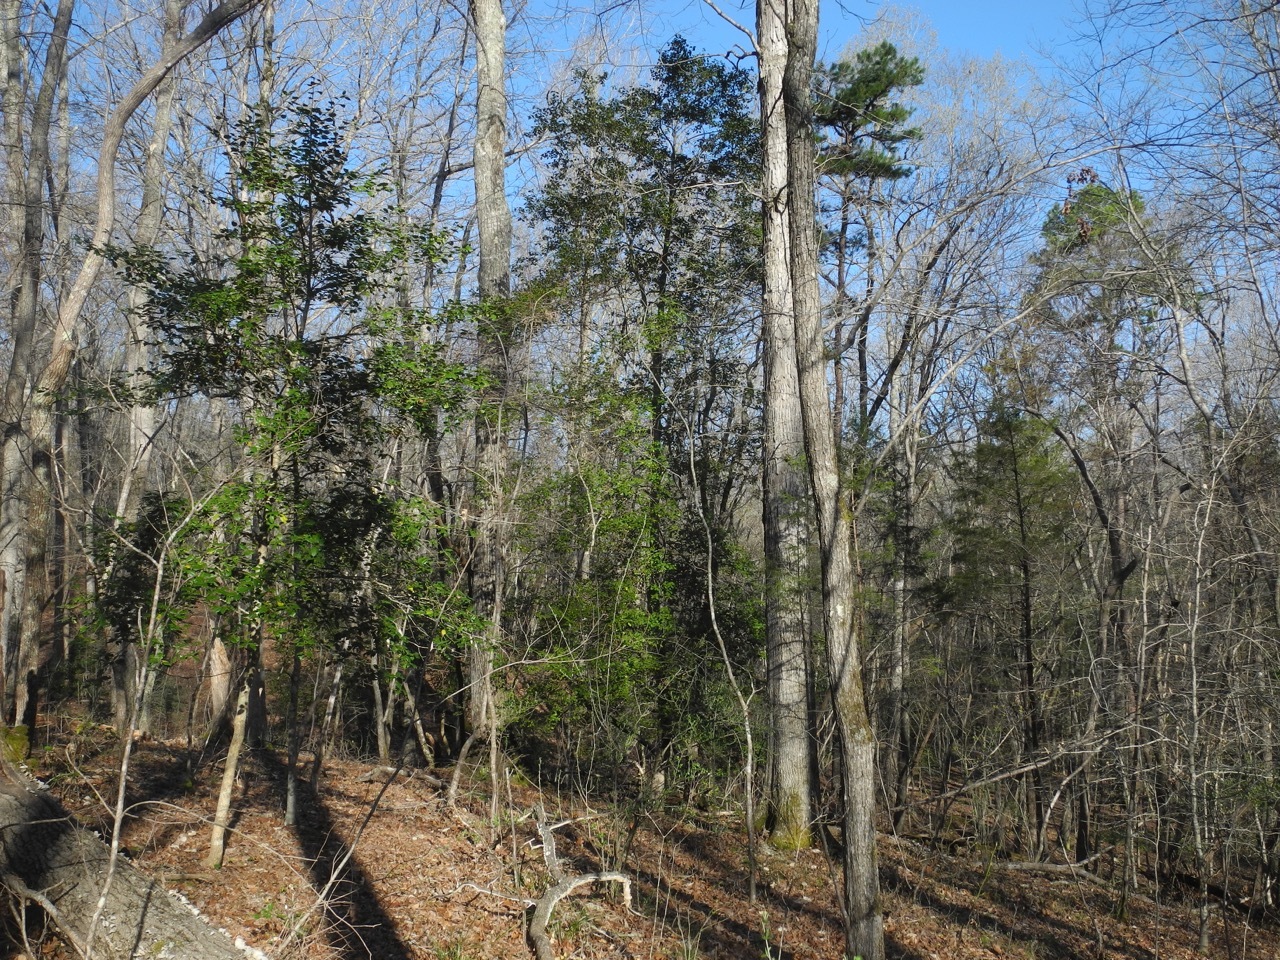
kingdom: Plantae
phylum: Tracheophyta
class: Magnoliopsida
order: Aquifoliales
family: Aquifoliaceae
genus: Ilex
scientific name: Ilex opaca
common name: American holly
